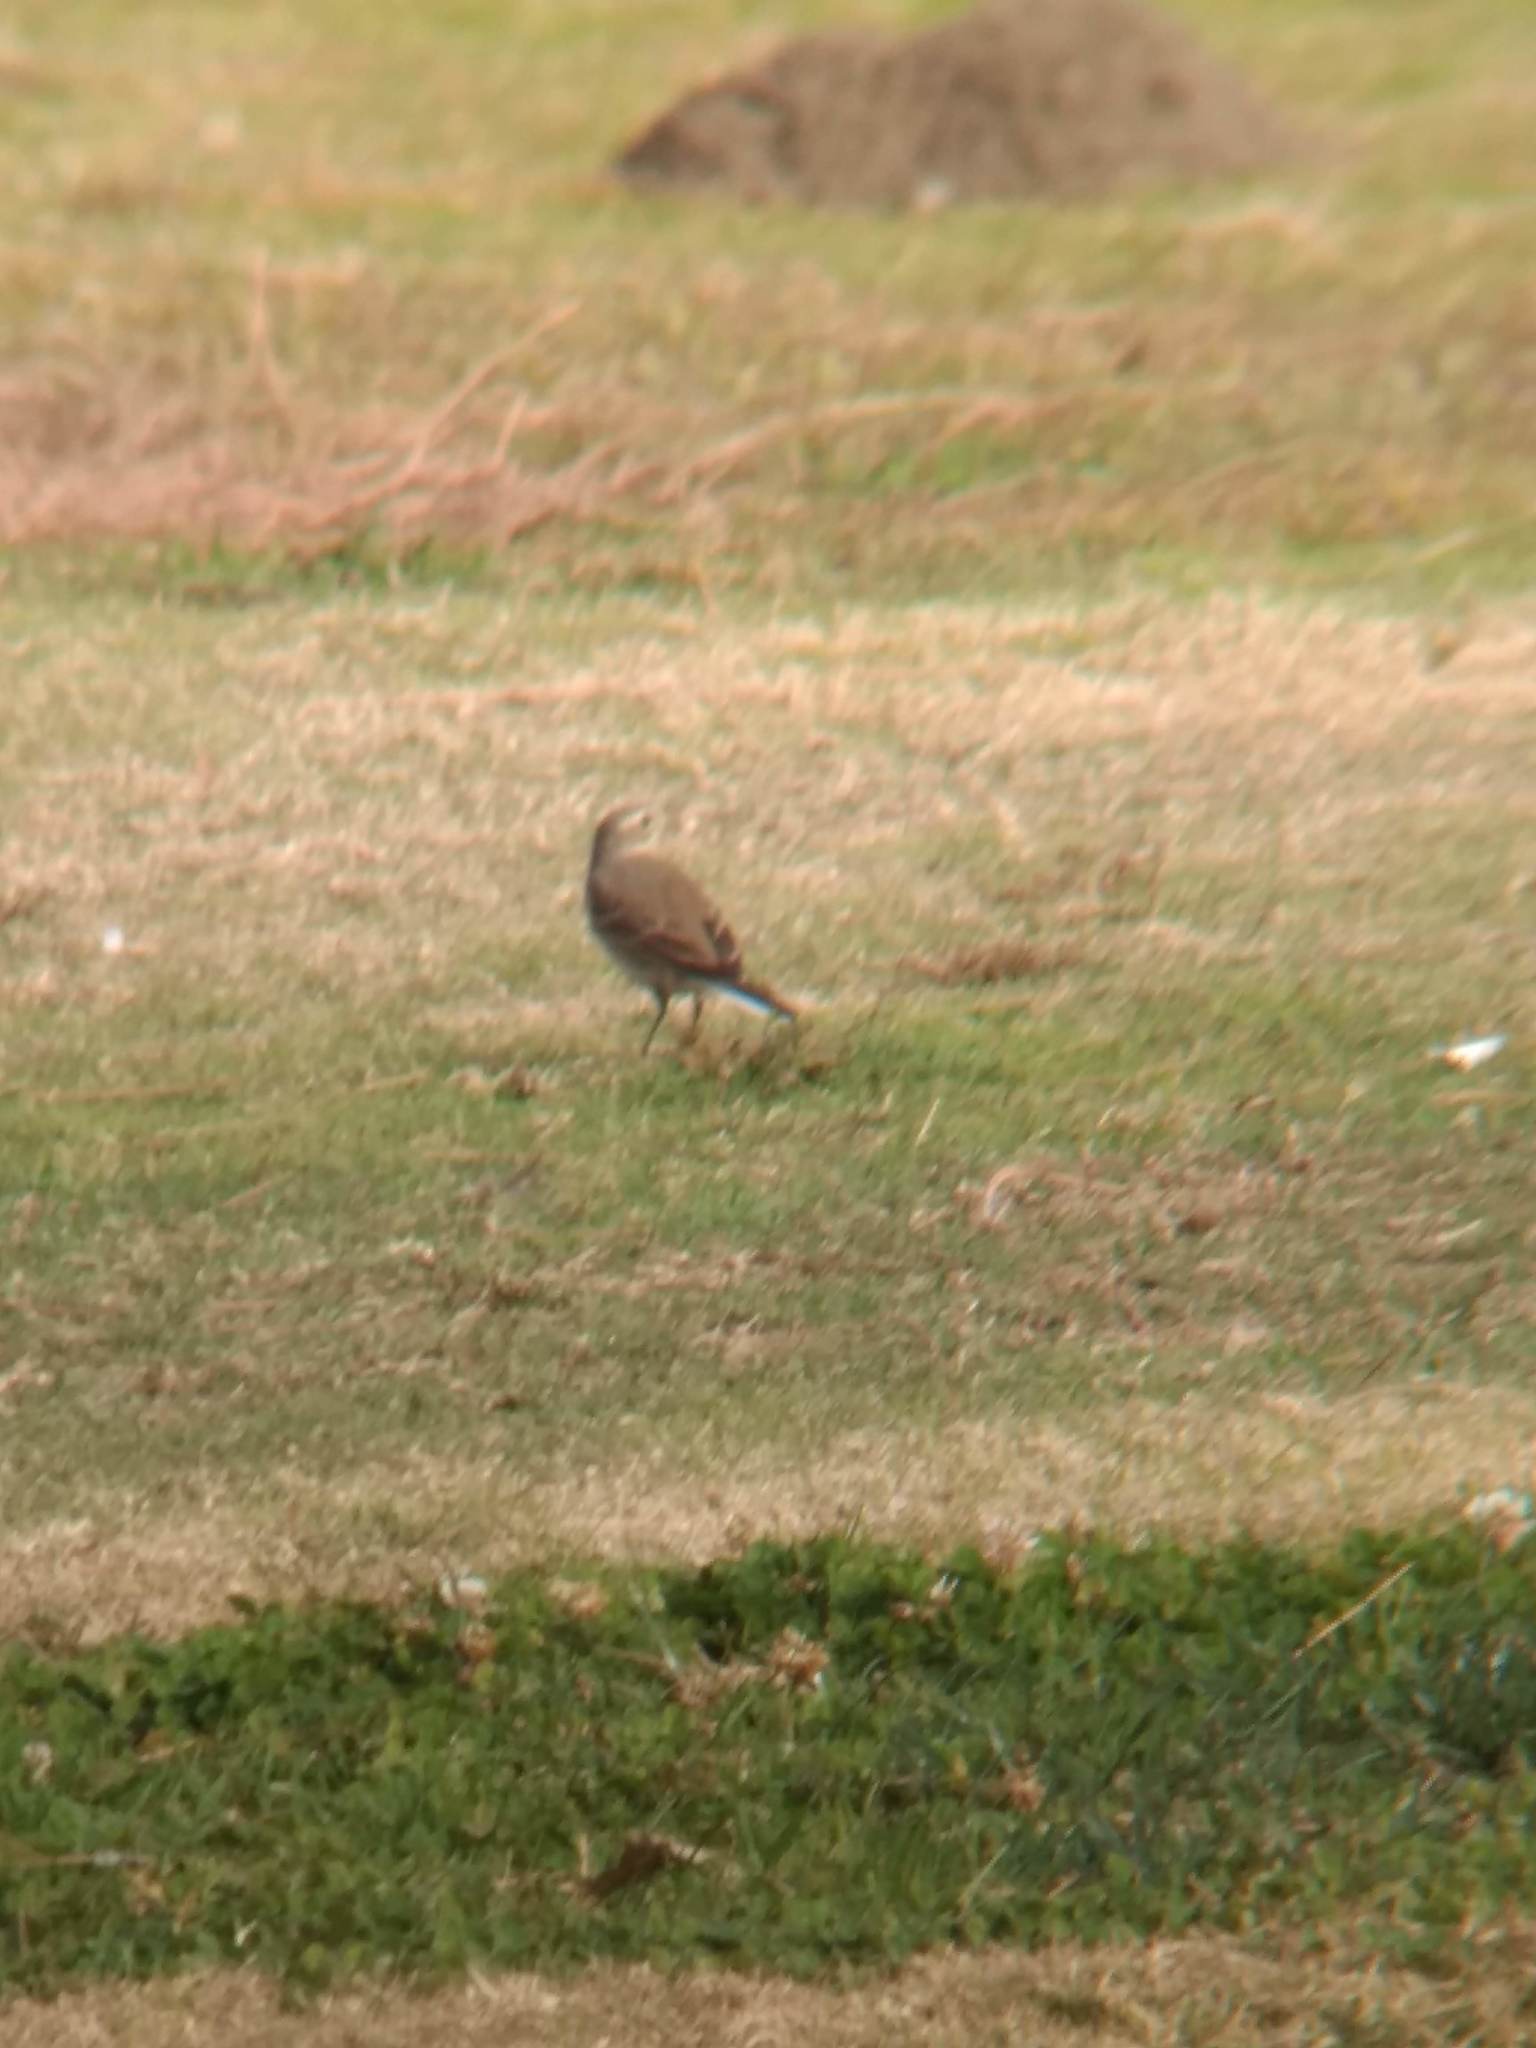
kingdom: Animalia
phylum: Chordata
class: Aves
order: Passeriformes
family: Motacillidae
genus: Anthus
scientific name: Anthus rubescens
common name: Buff-bellied pipit
